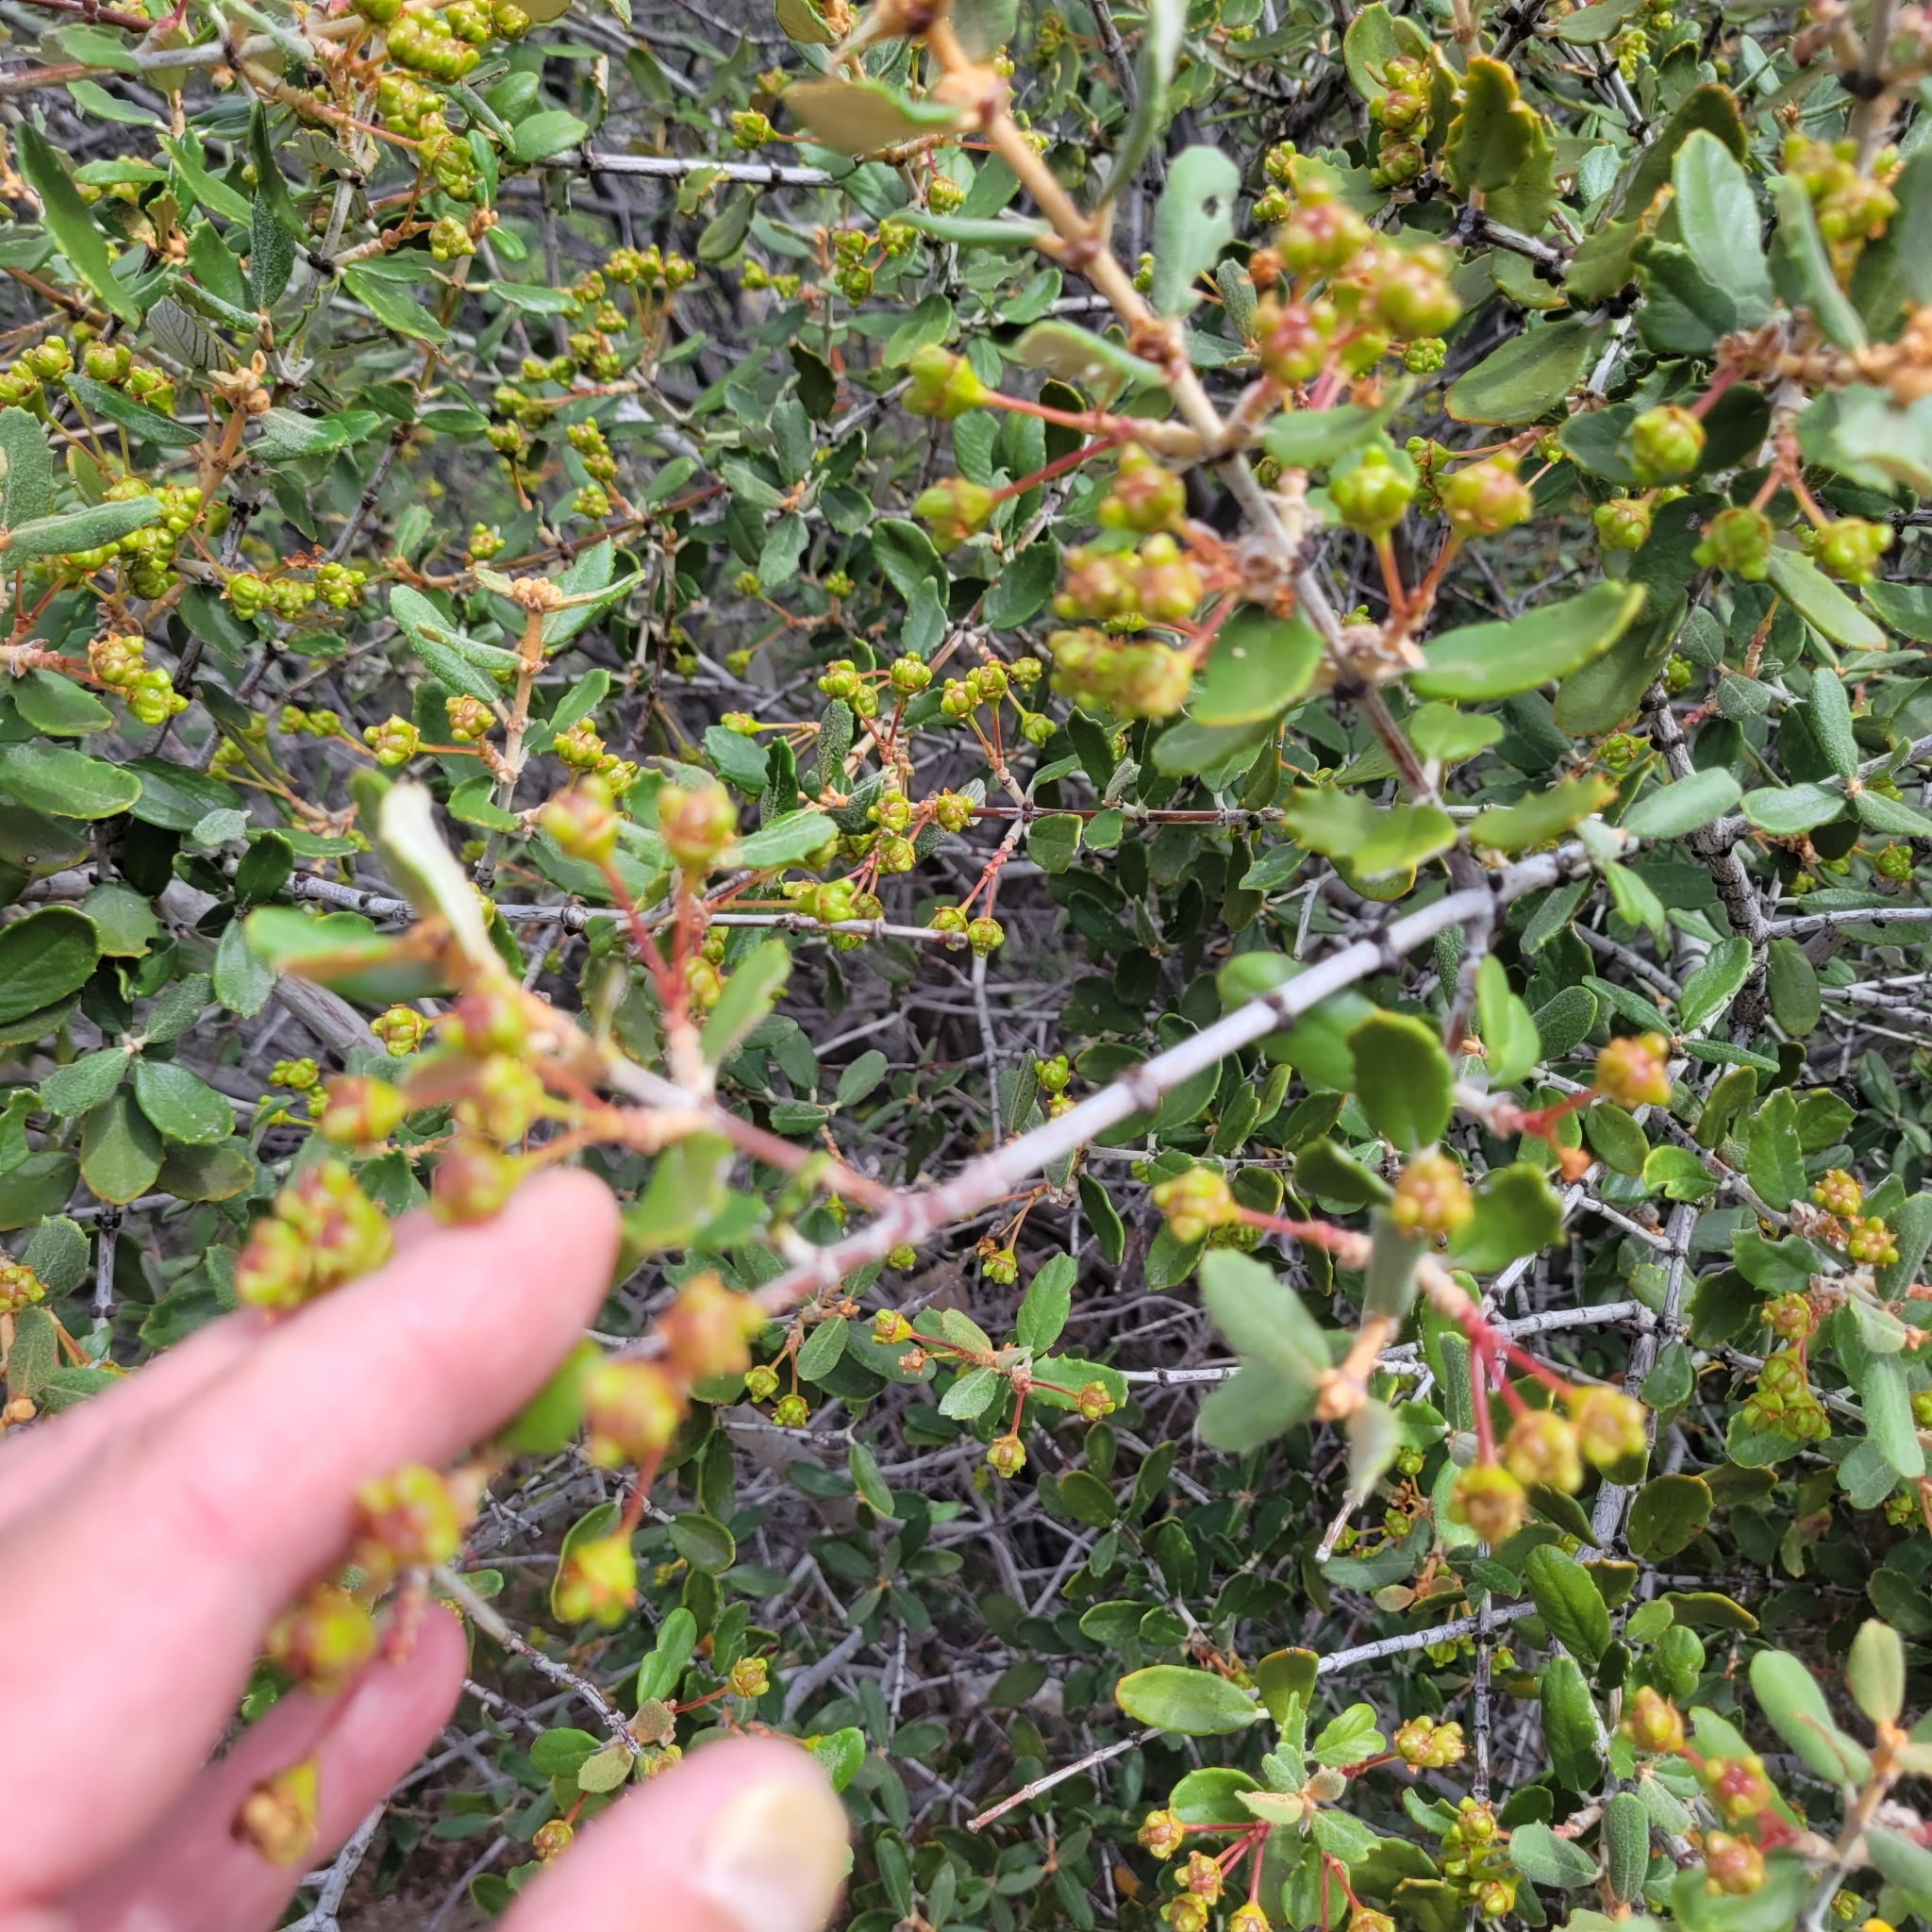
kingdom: Plantae
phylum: Tracheophyta
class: Magnoliopsida
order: Rosales
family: Rhamnaceae
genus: Ceanothus
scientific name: Ceanothus crassifolius
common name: Hoaryleaf ceanothus
